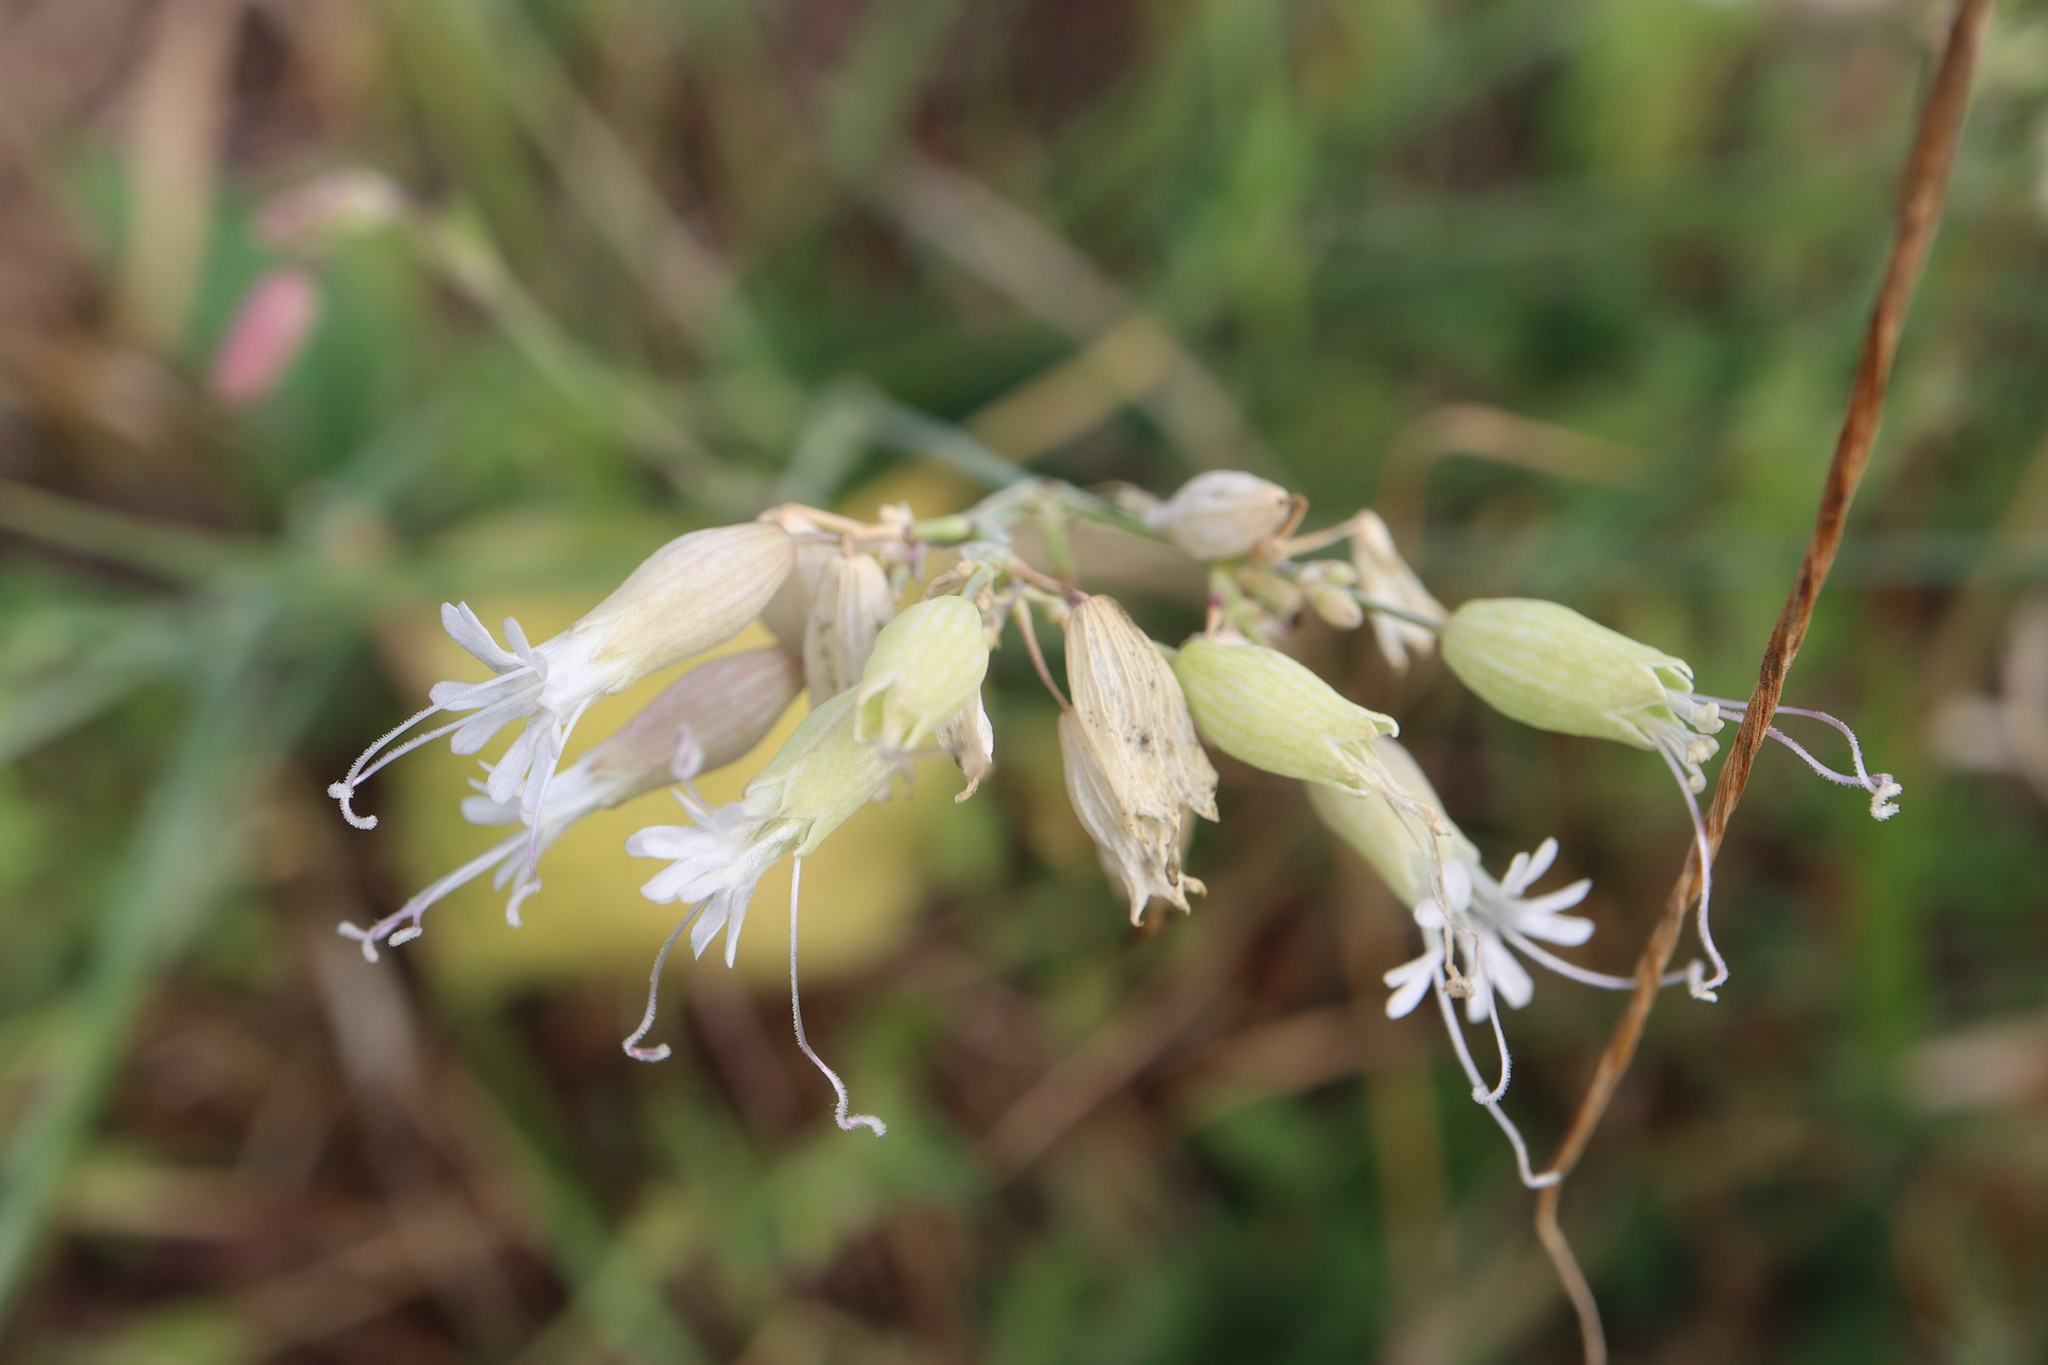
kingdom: Plantae
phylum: Tracheophyta
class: Magnoliopsida
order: Caryophyllales
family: Caryophyllaceae
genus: Silene
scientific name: Silene vulgaris
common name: Bladder campion
